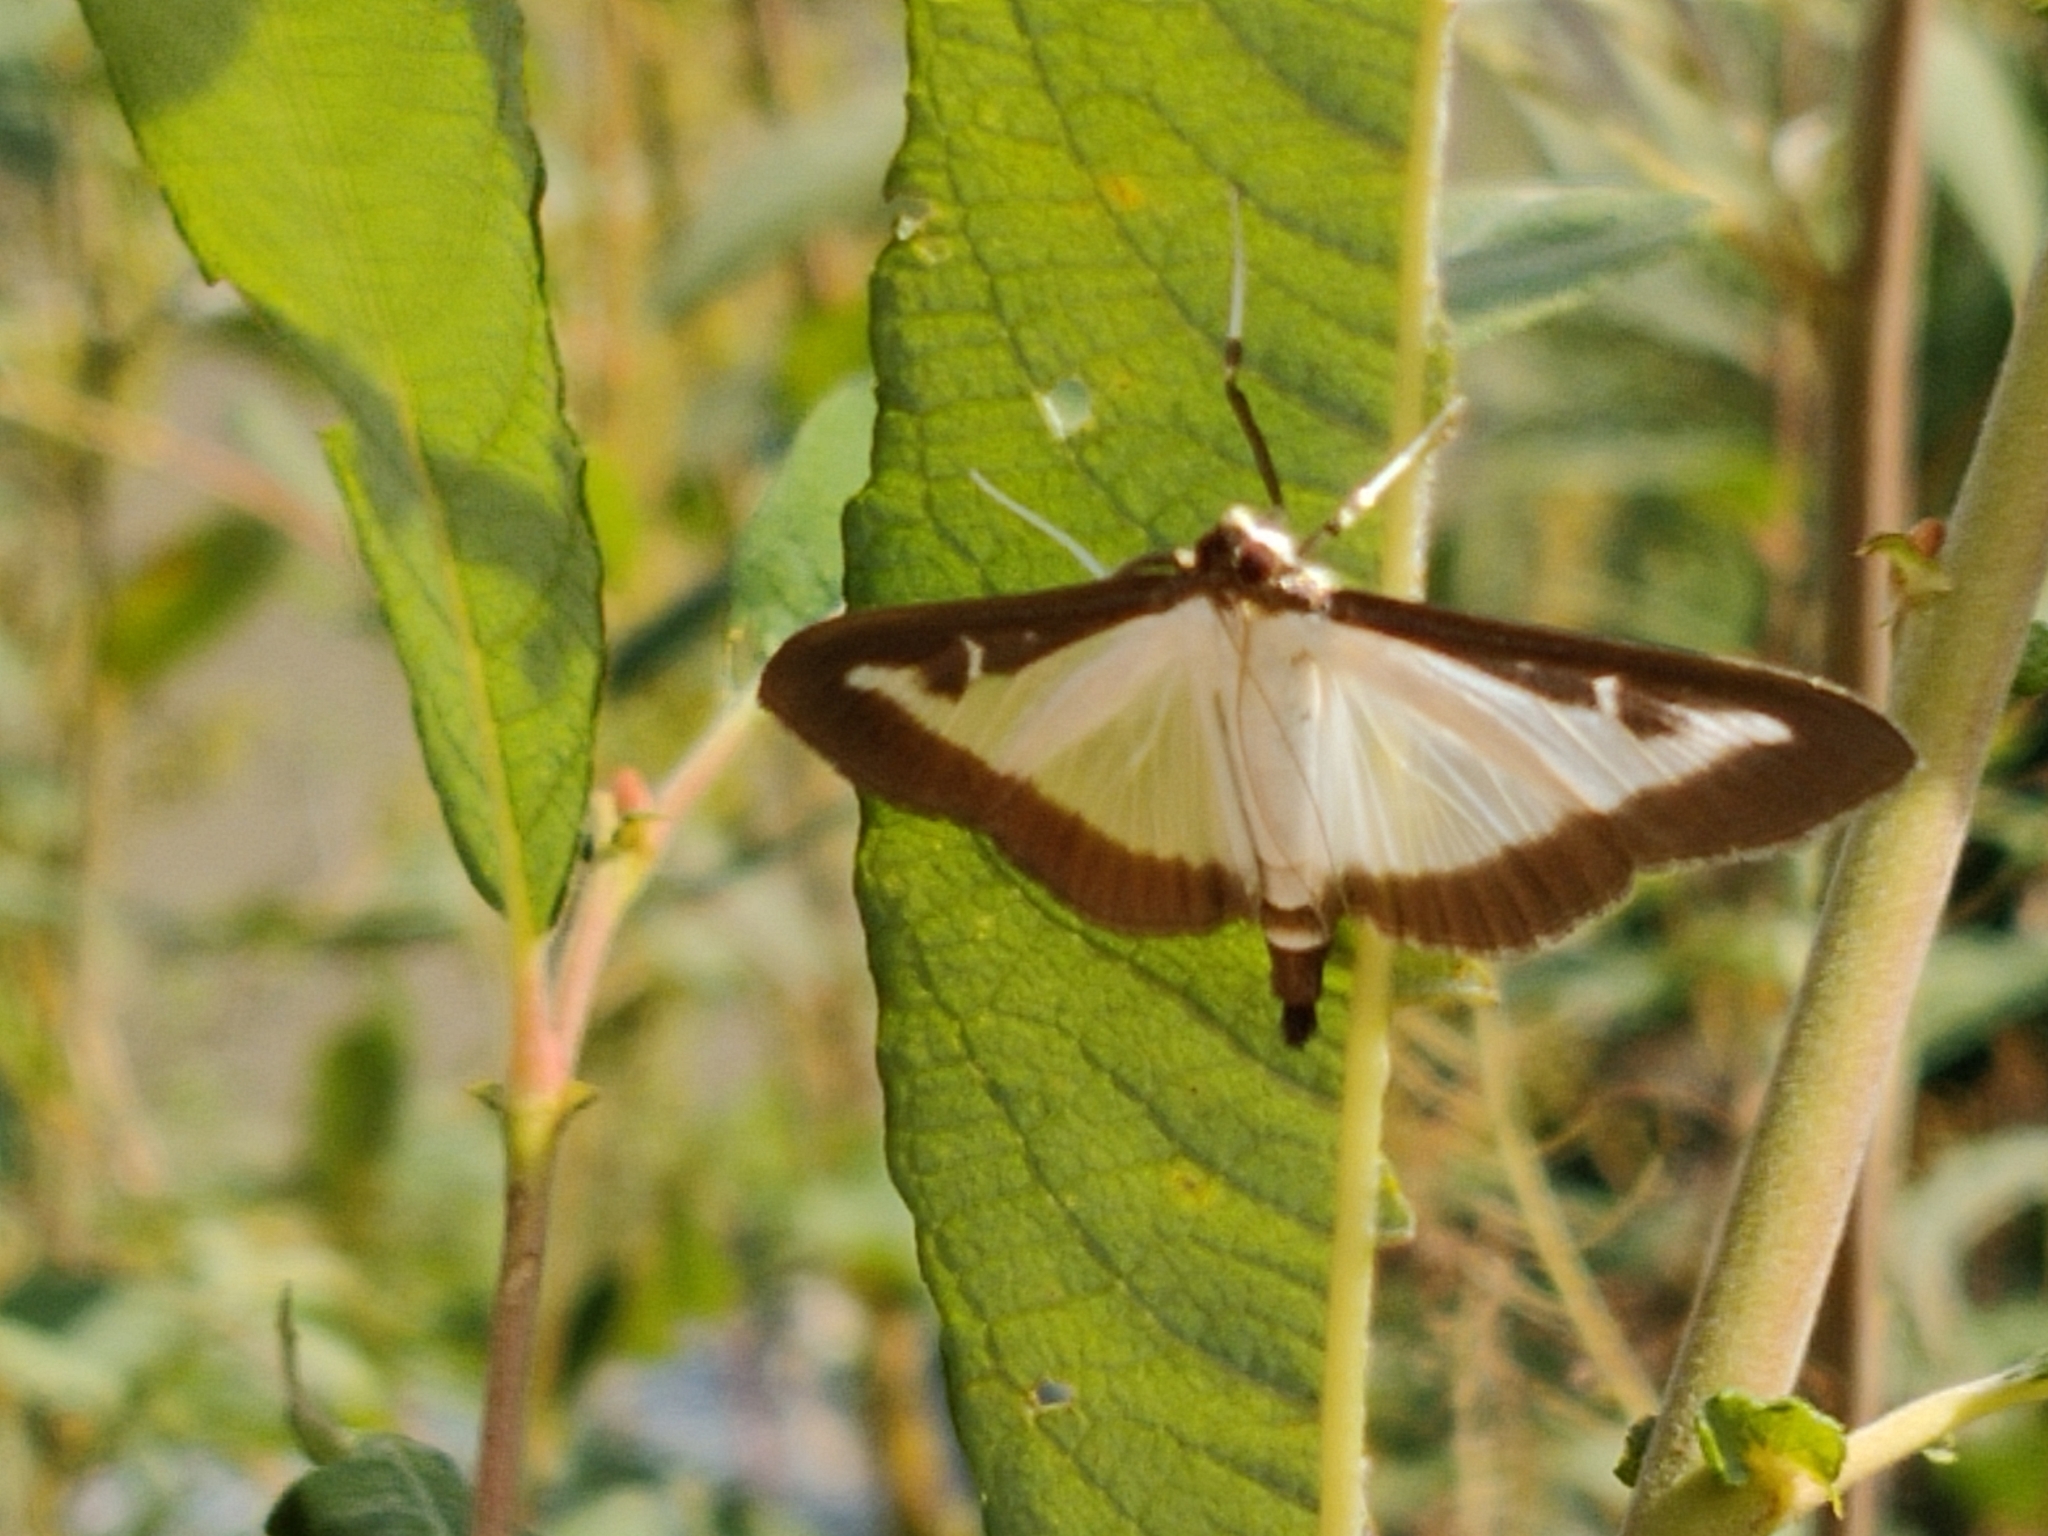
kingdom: Animalia
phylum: Arthropoda
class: Insecta
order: Lepidoptera
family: Crambidae
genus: Cydalima
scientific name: Cydalima perspectalis
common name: Box tree moth
